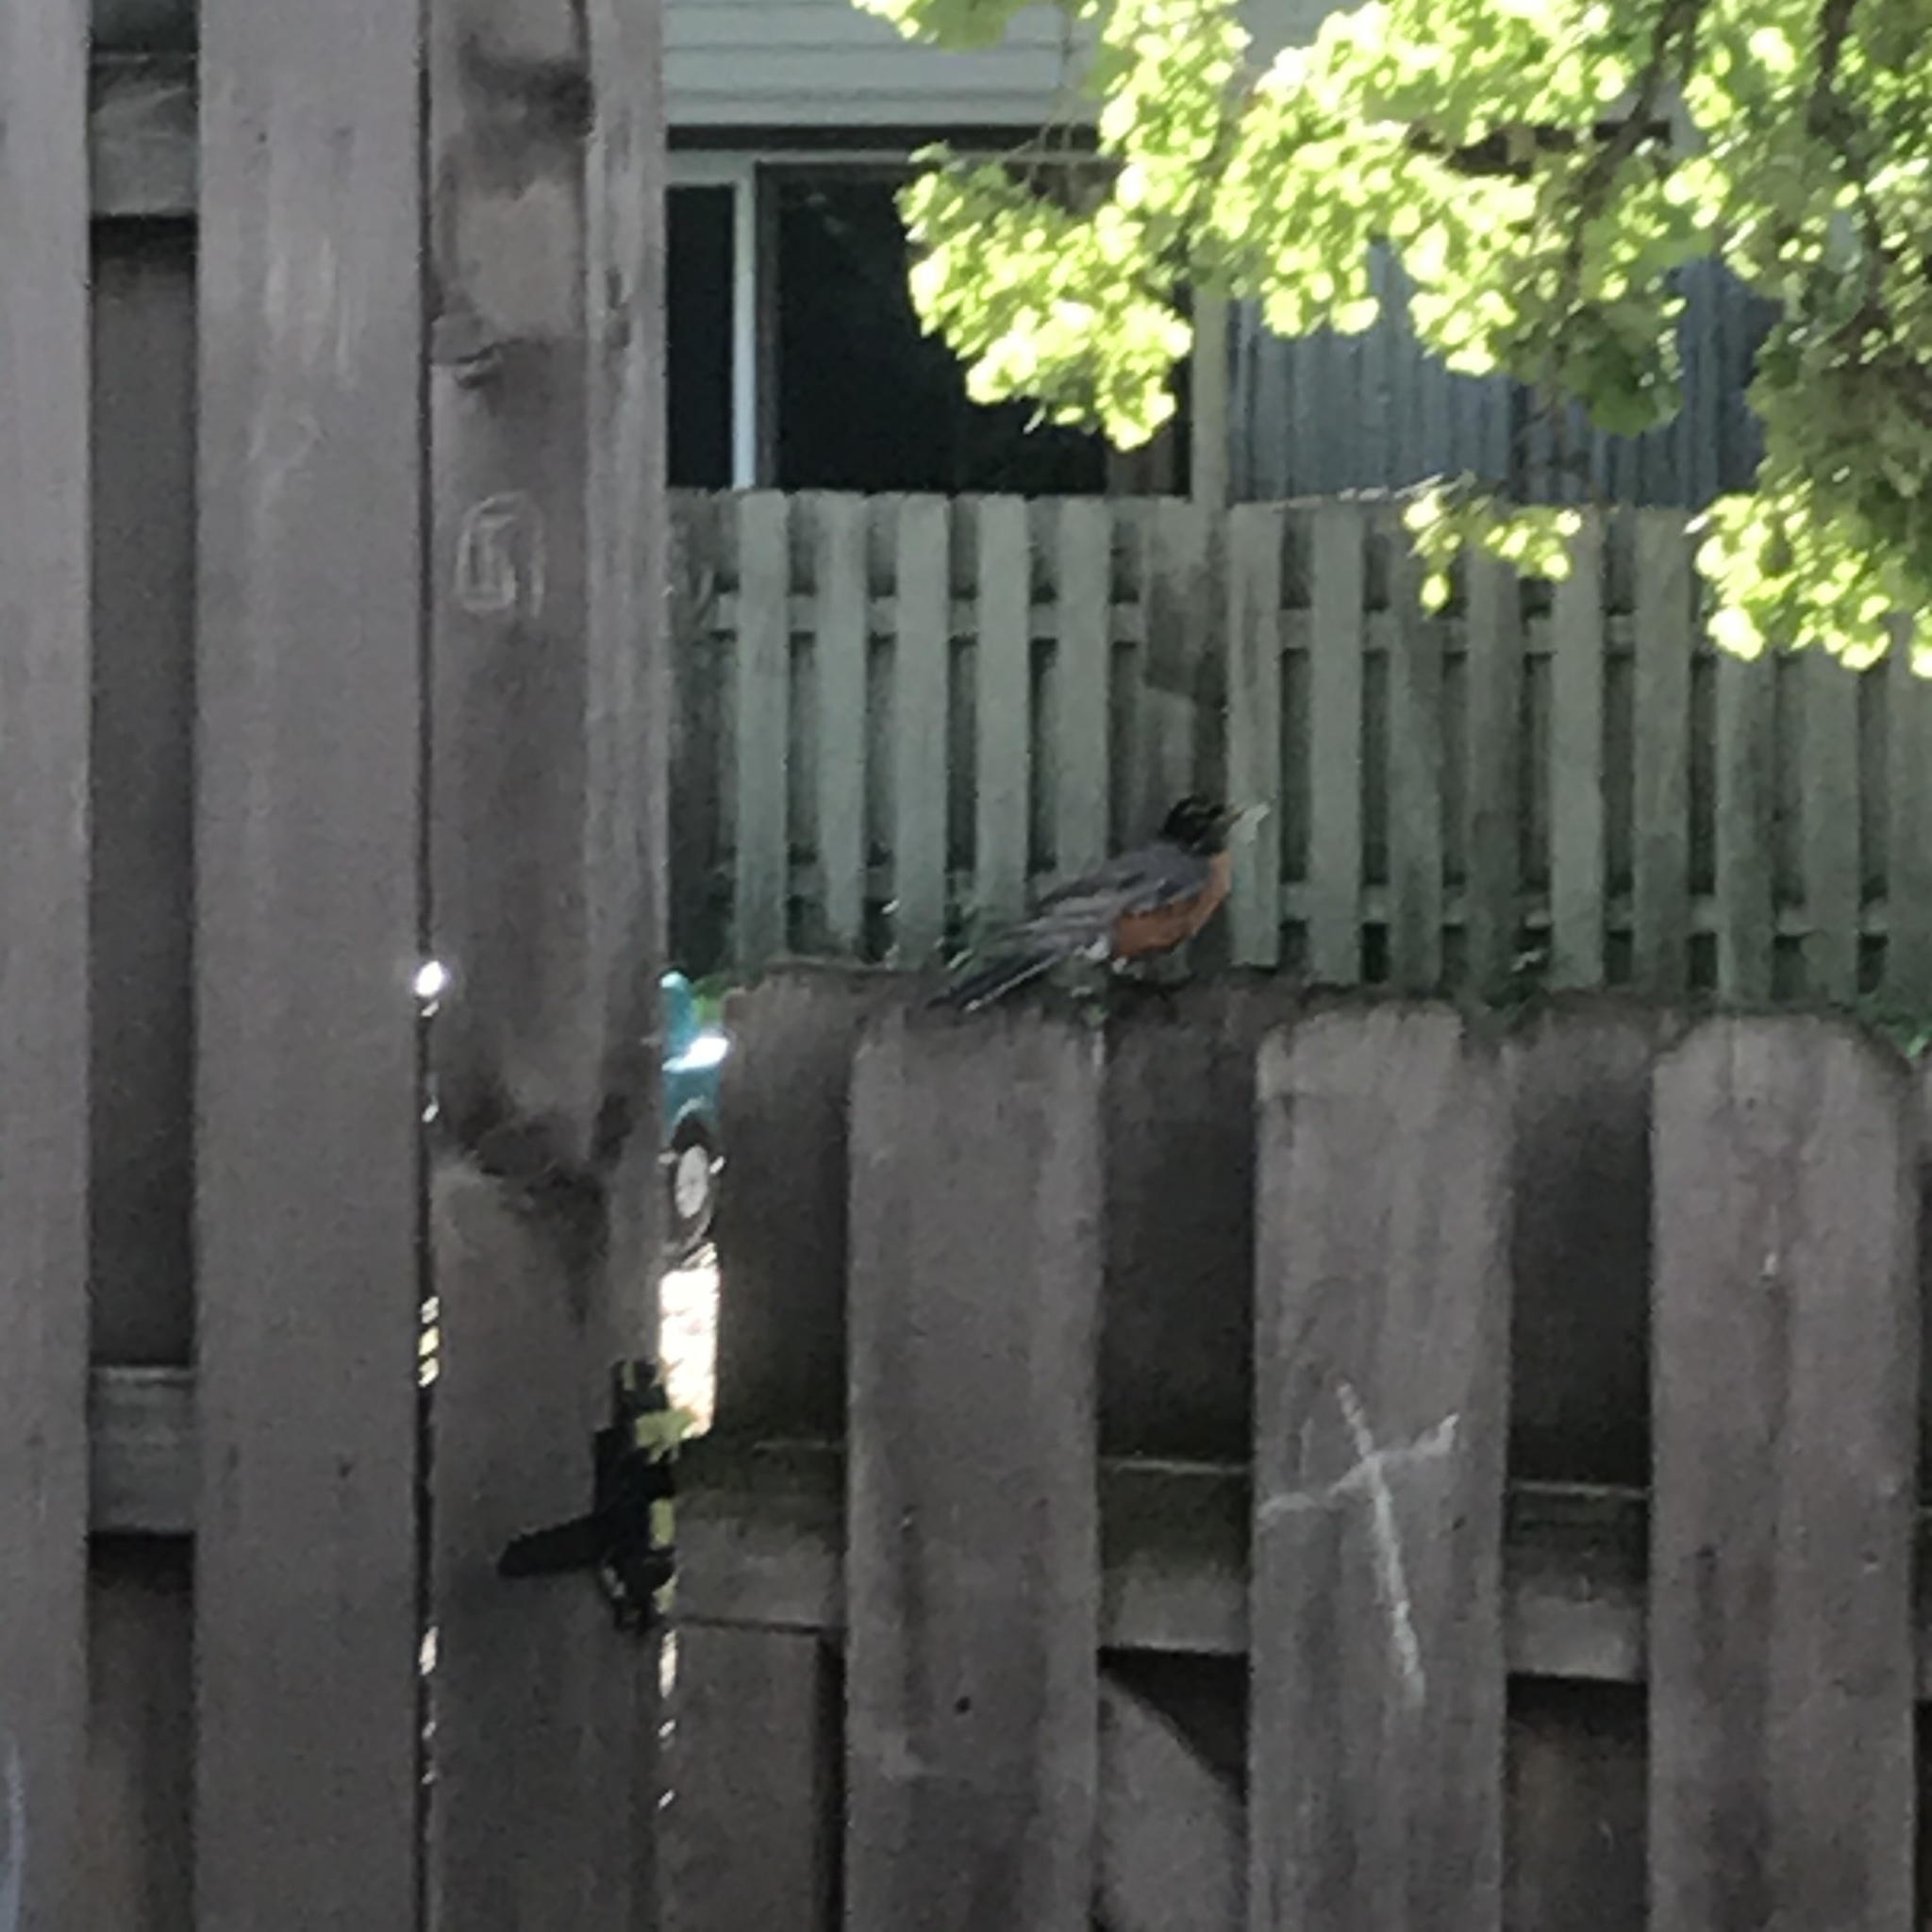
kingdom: Animalia
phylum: Chordata
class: Aves
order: Passeriformes
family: Turdidae
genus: Turdus
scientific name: Turdus migratorius
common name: American robin
